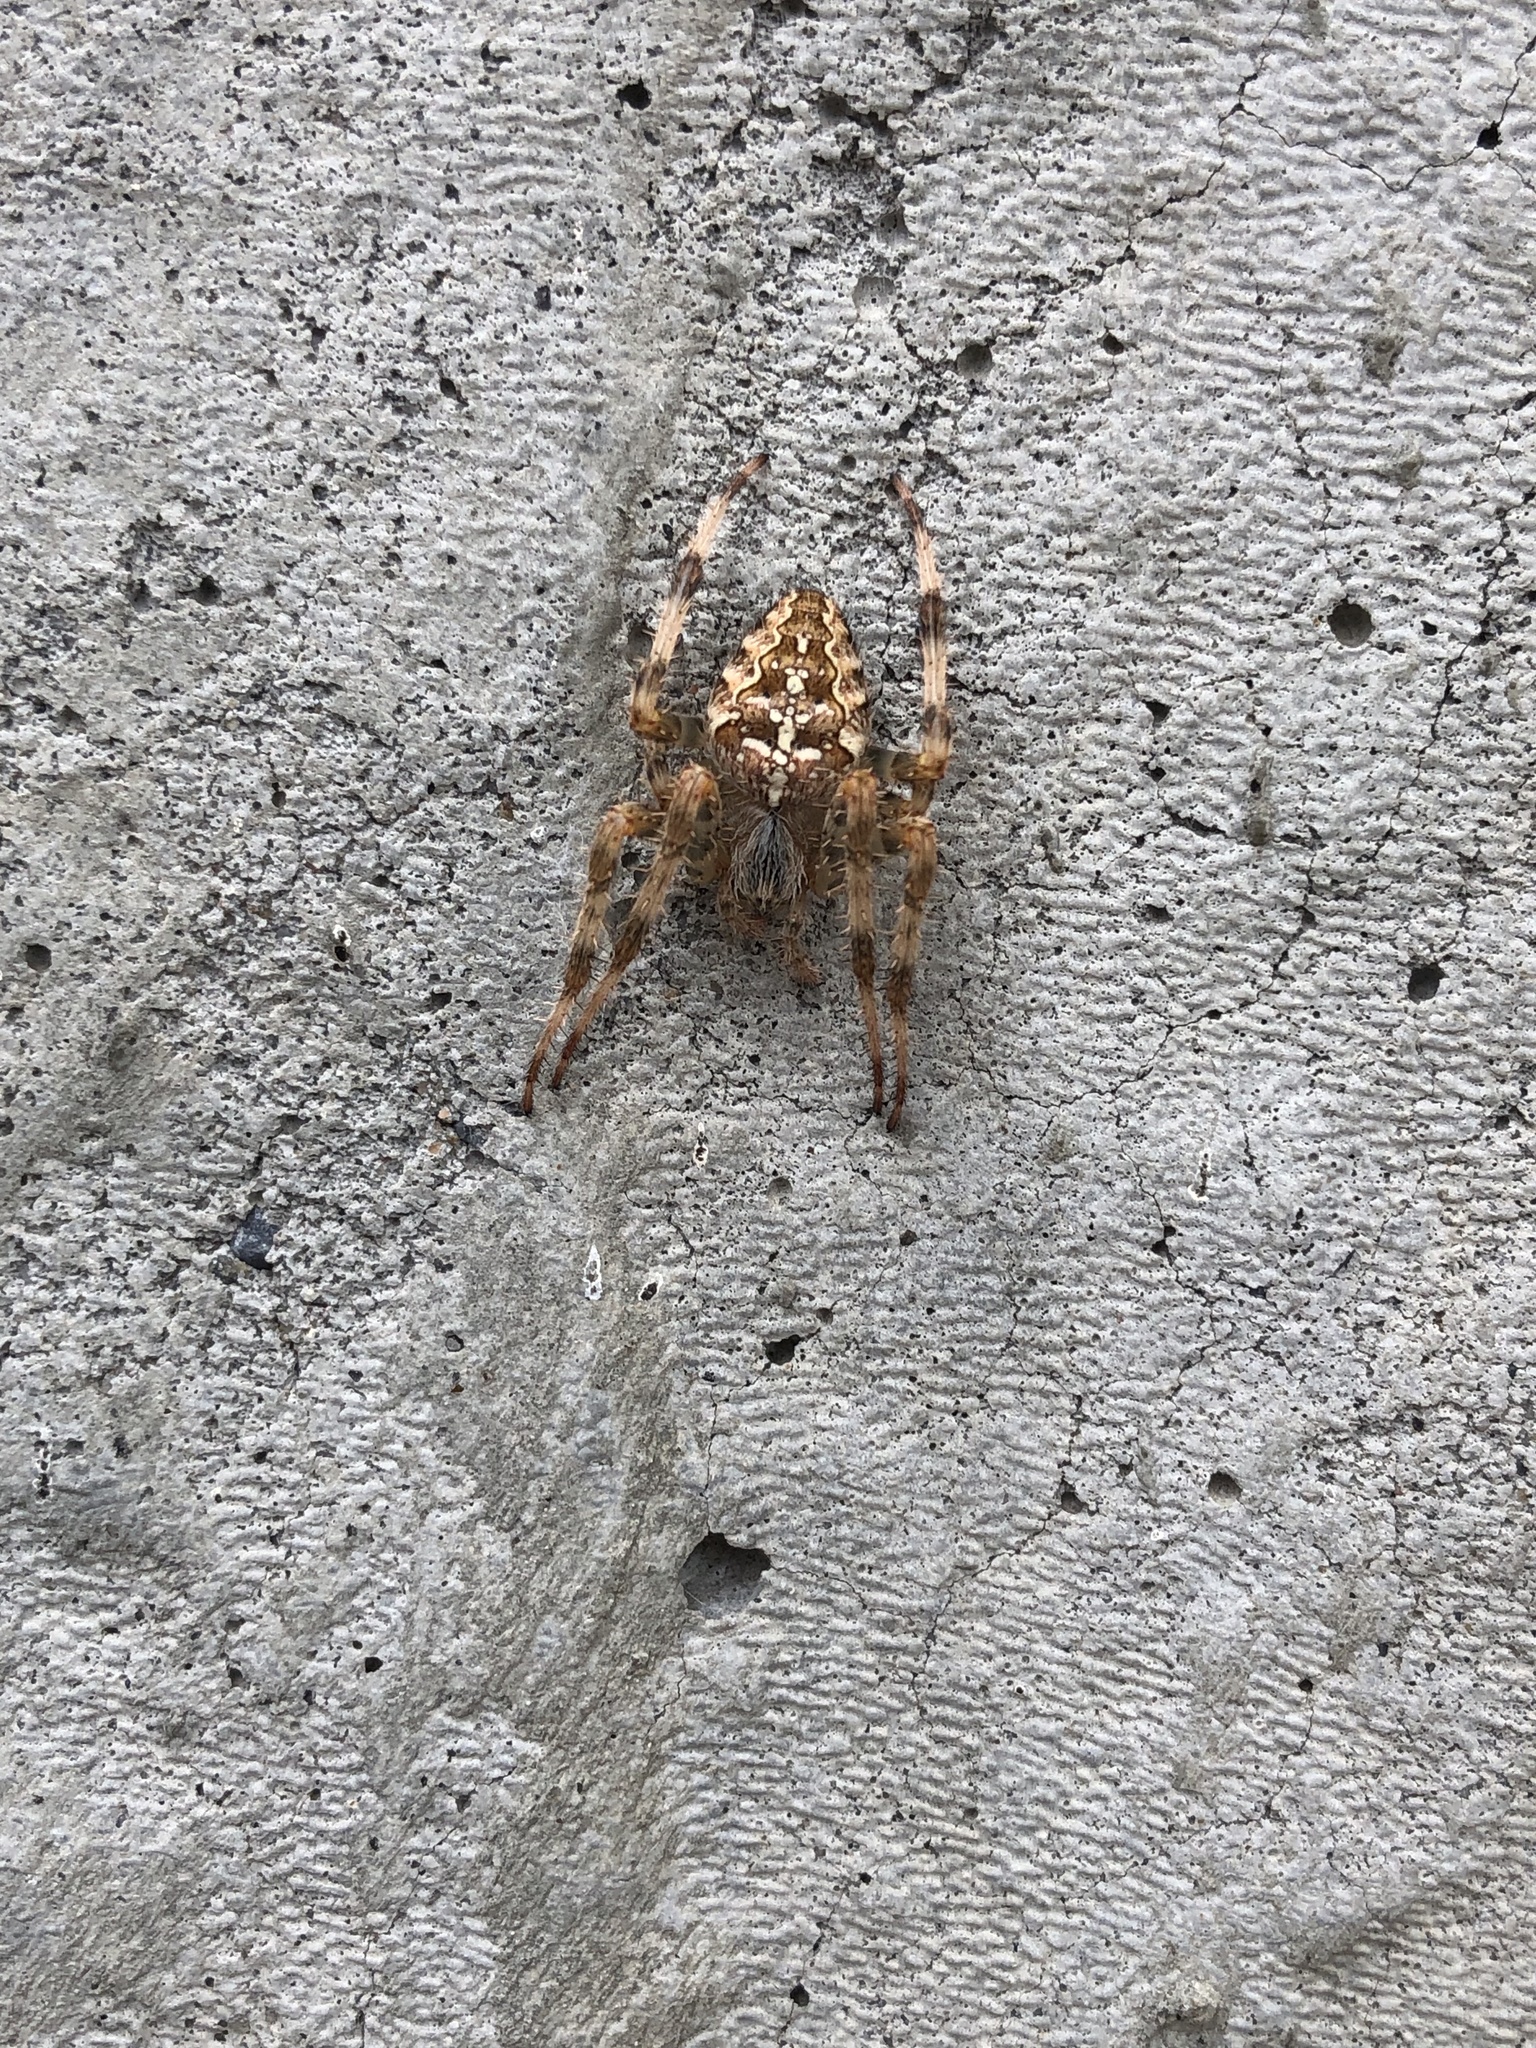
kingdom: Animalia
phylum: Arthropoda
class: Arachnida
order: Araneae
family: Araneidae
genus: Araneus
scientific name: Araneus diadematus
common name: Cross orbweaver
